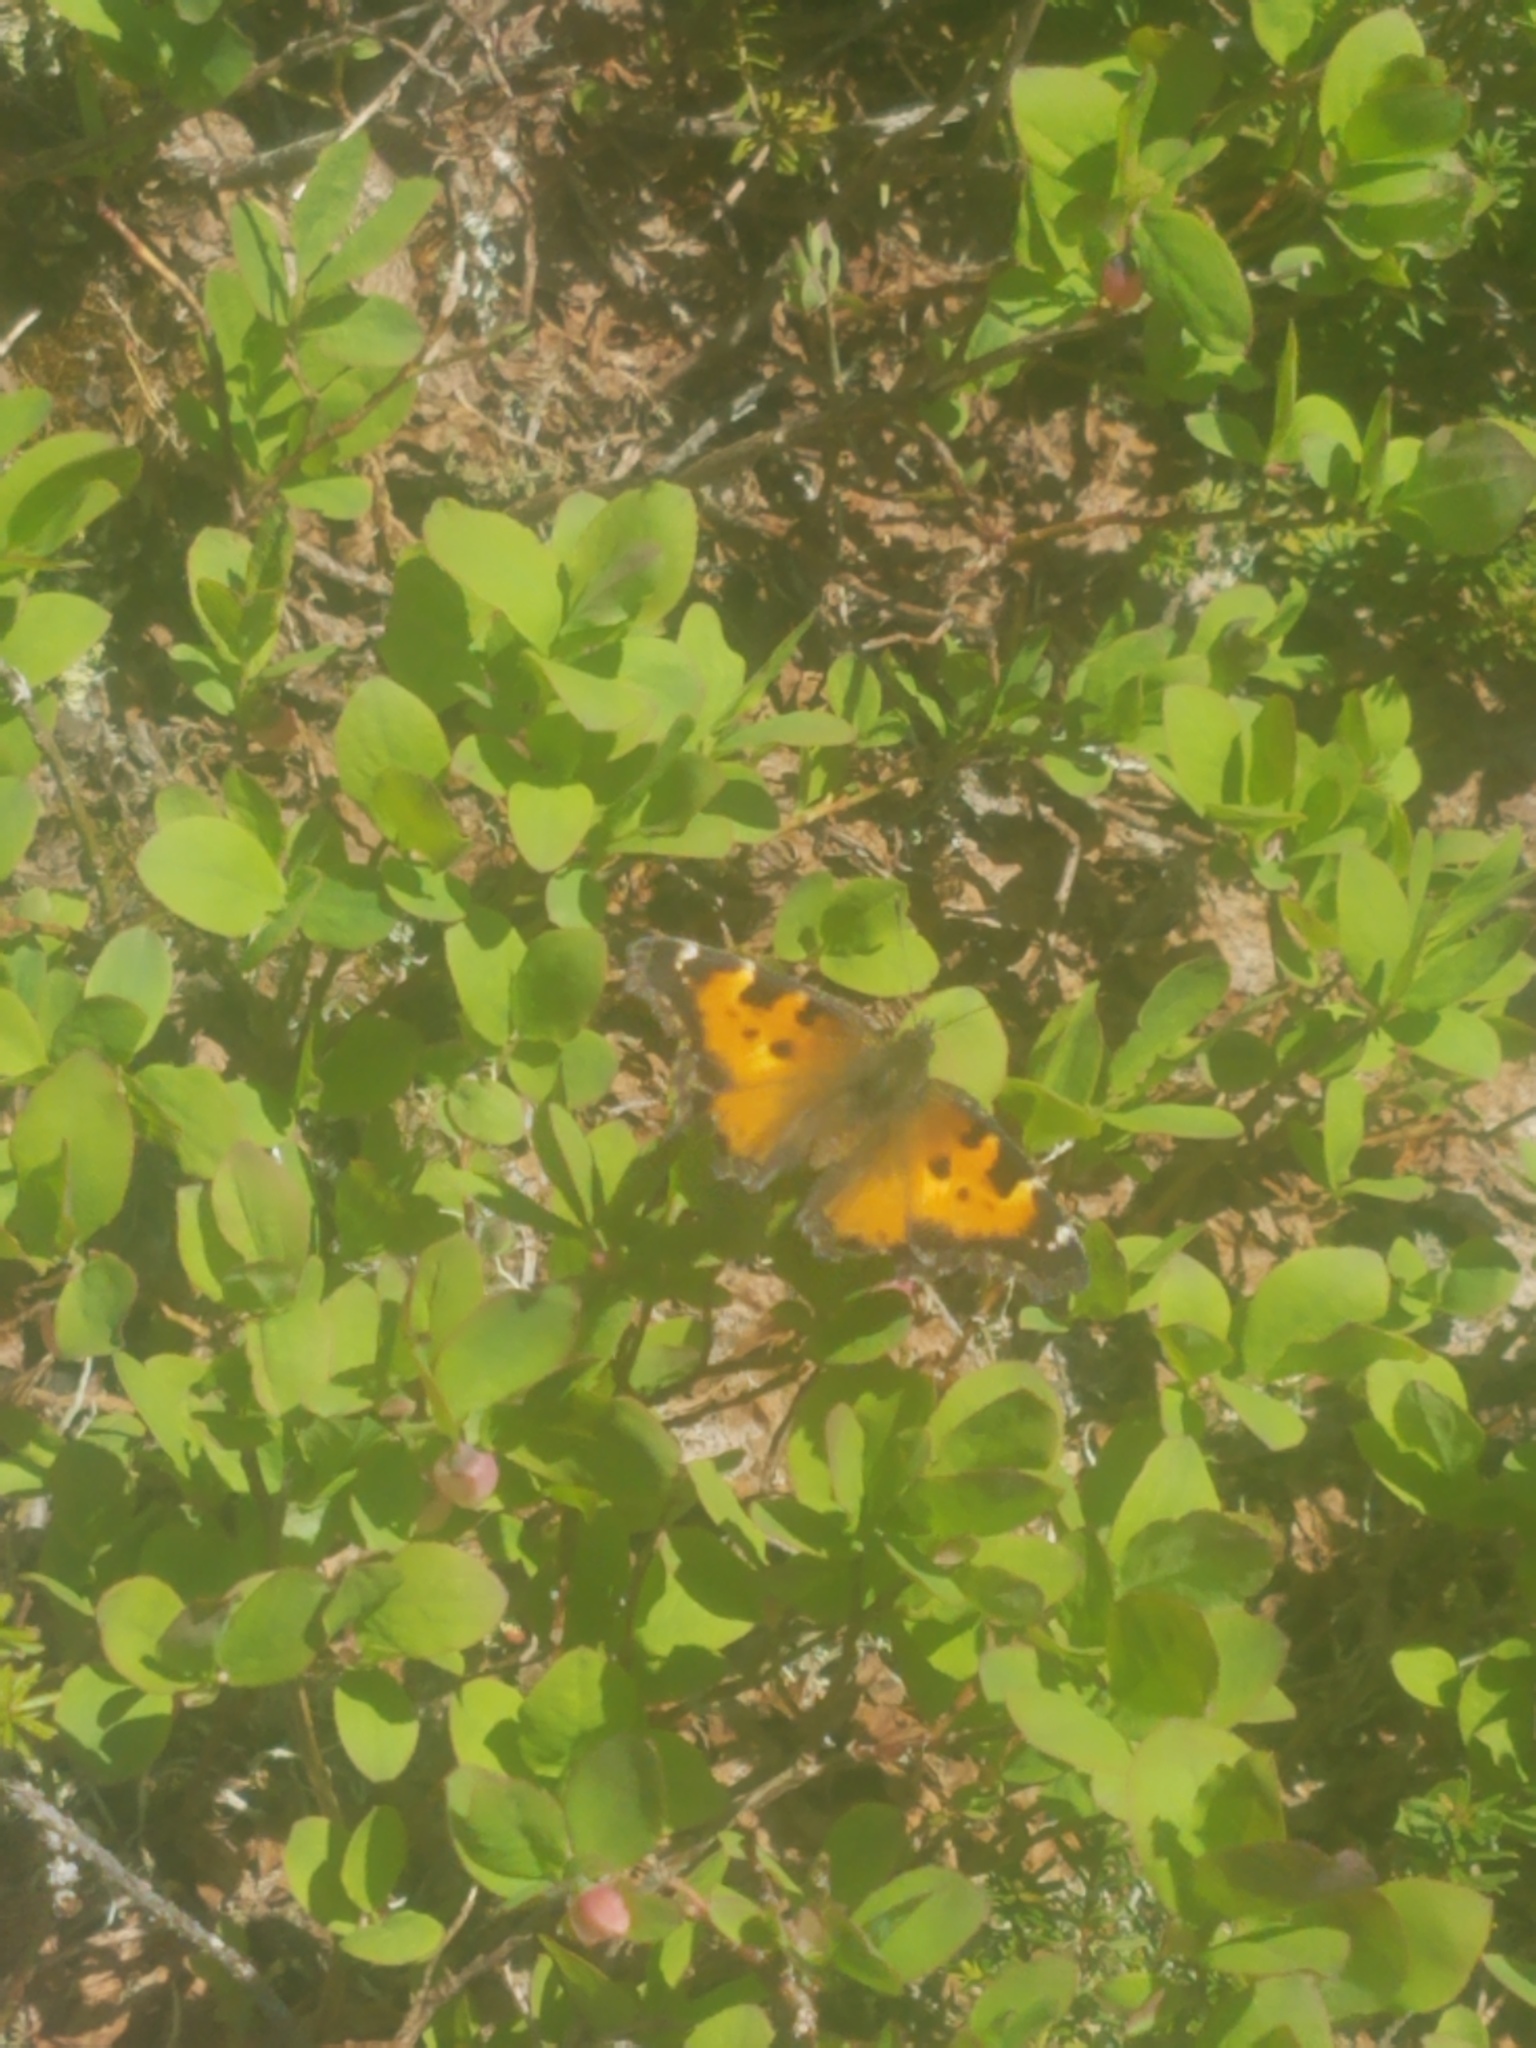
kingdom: Animalia
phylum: Arthropoda
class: Insecta
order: Lepidoptera
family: Nymphalidae
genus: Nymphalis
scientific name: Nymphalis californica
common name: California tortoiseshell
